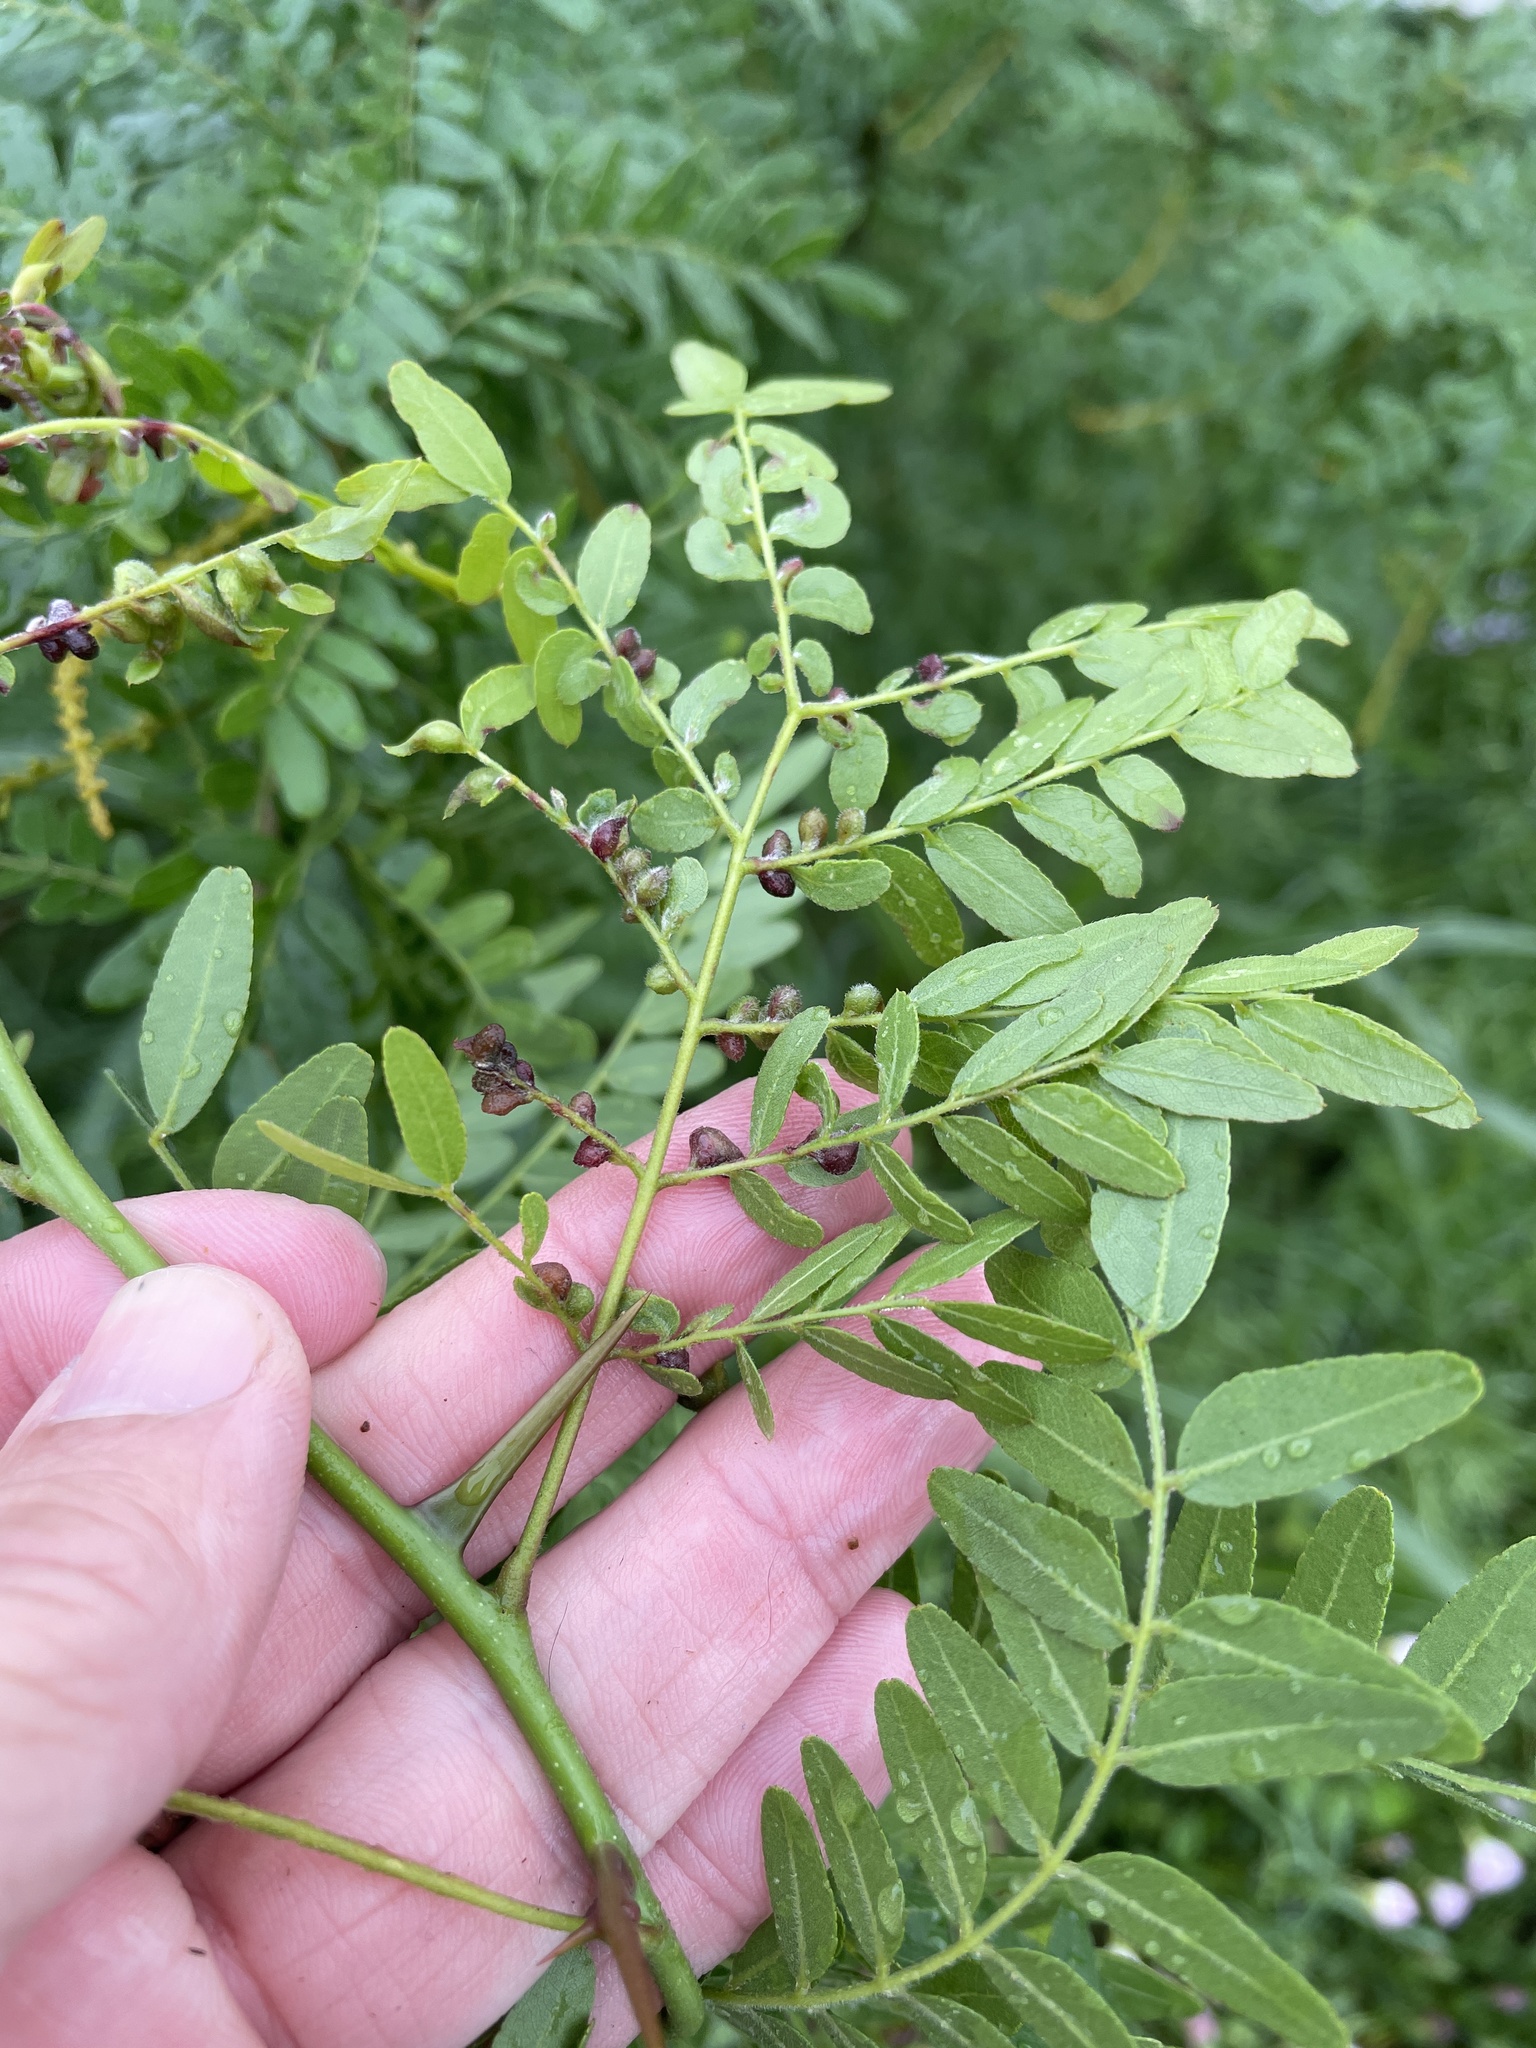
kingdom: Animalia
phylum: Arthropoda
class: Insecta
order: Diptera
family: Cecidomyiidae
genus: Dasineura
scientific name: Dasineura gleditchiae
